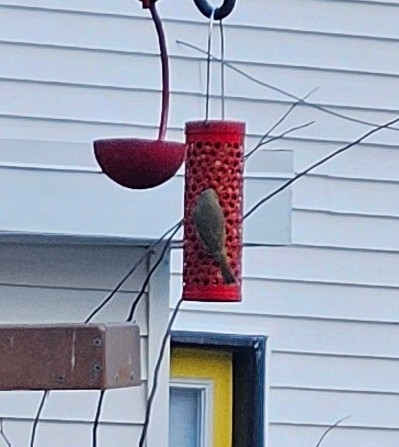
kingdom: Animalia
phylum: Chordata
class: Aves
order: Passeriformes
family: Parulidae
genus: Leiothlypis
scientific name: Leiothlypis celata
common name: Orange-crowned warbler
